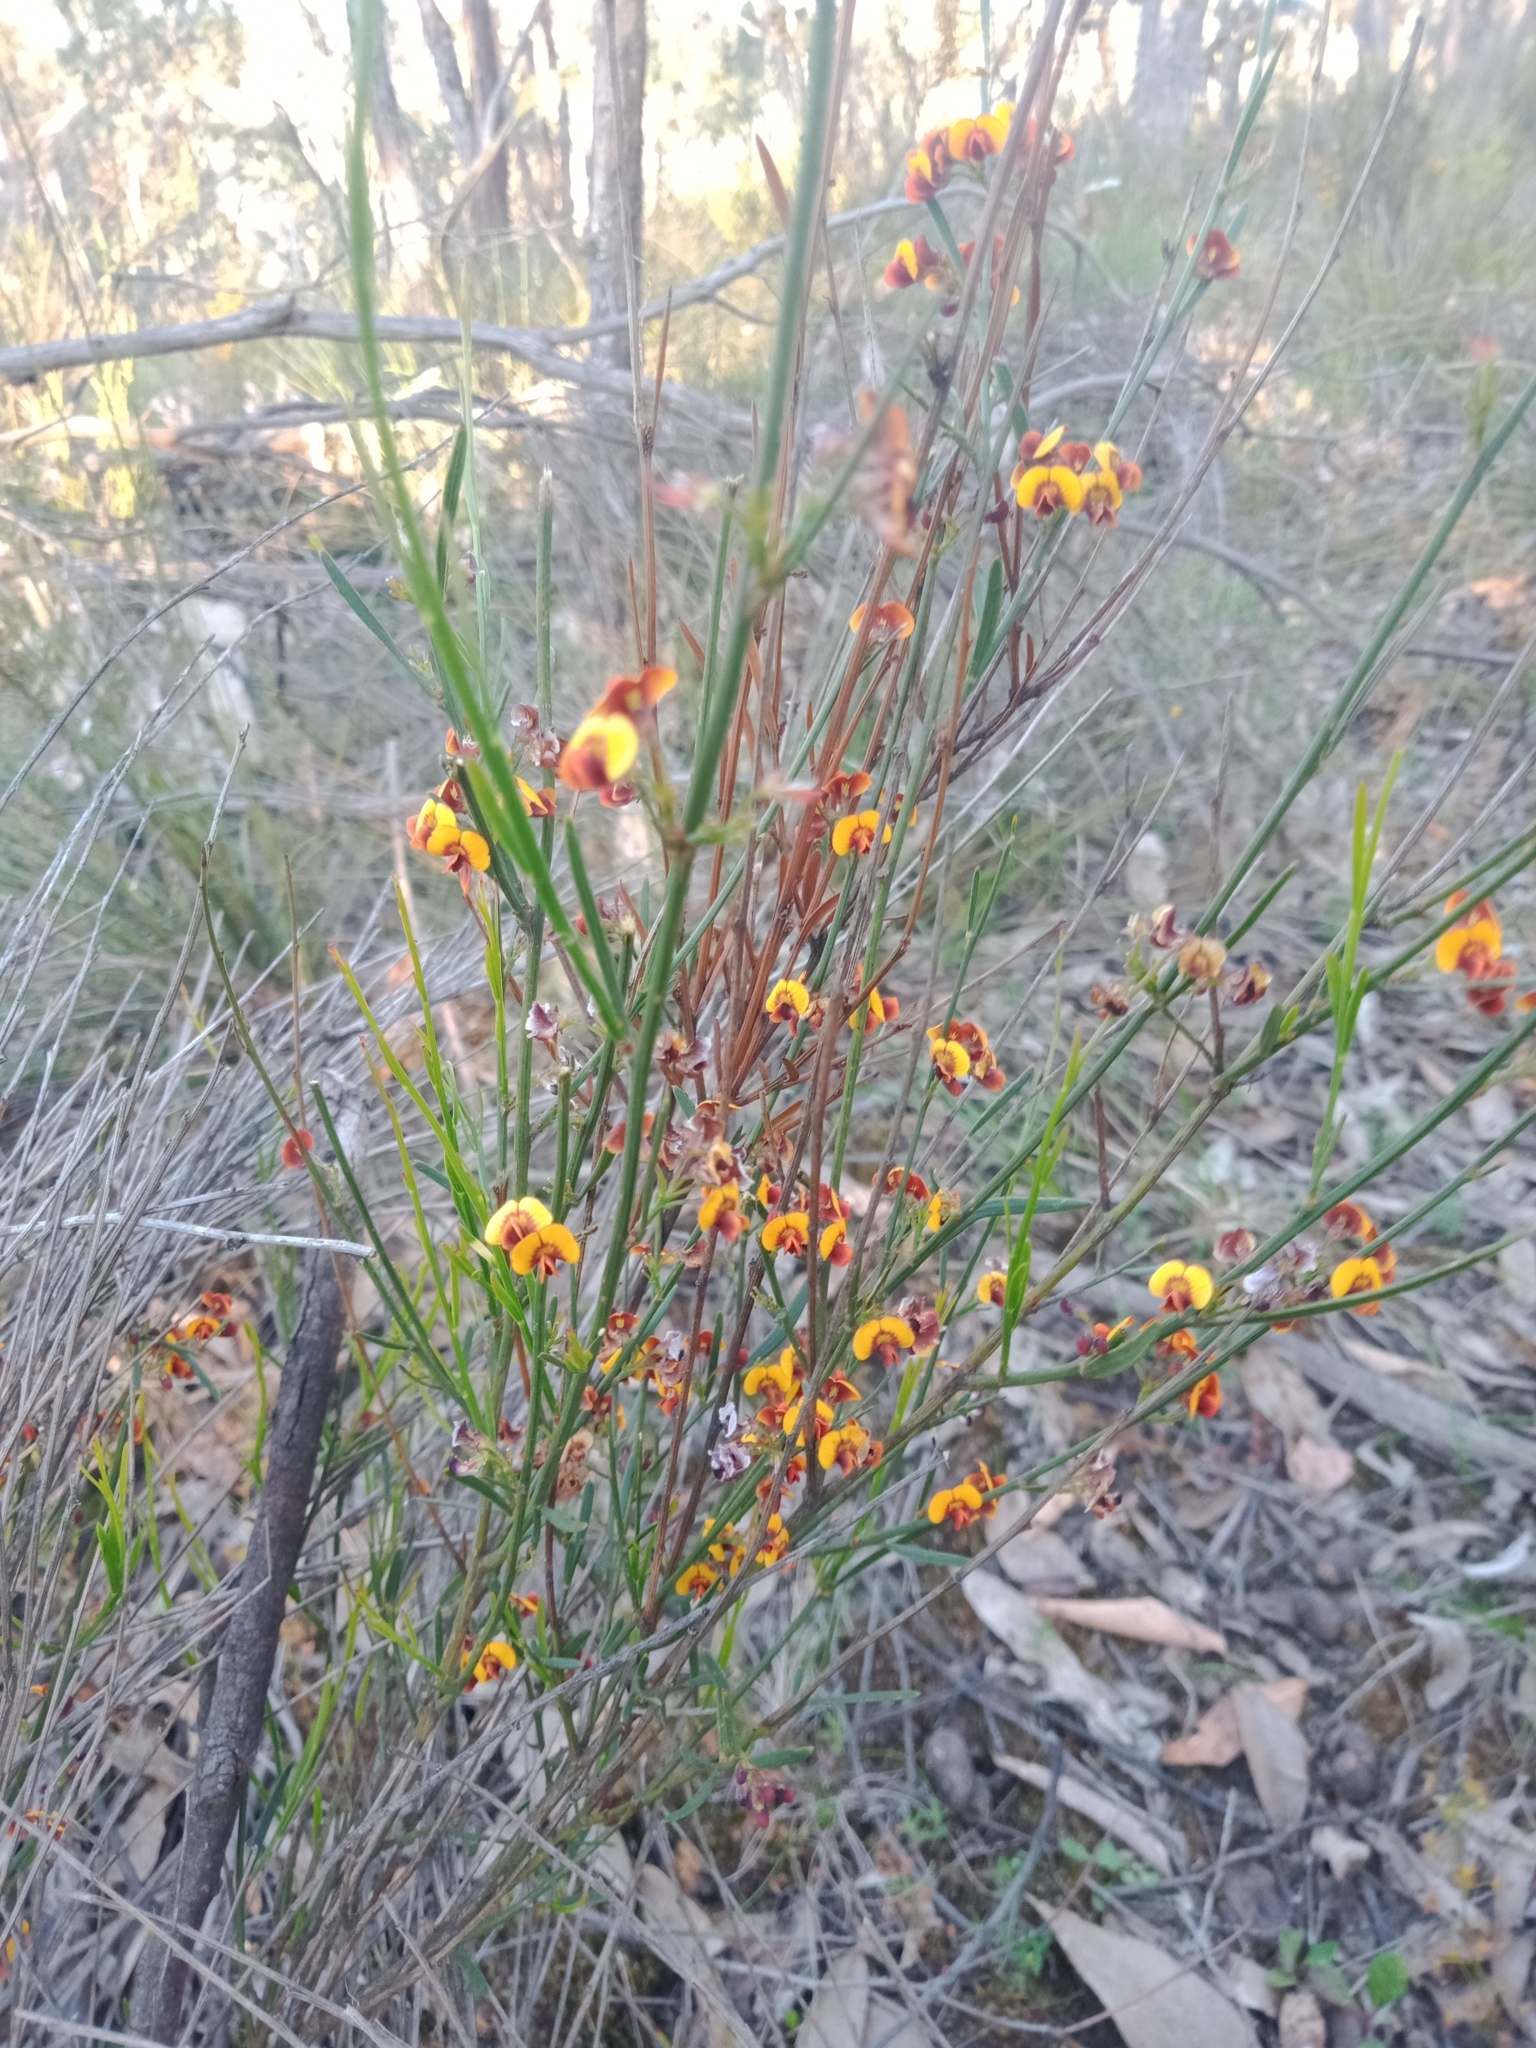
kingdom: Plantae
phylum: Tracheophyta
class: Magnoliopsida
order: Fabales
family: Fabaceae
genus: Daviesia
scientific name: Daviesia leptophylla
